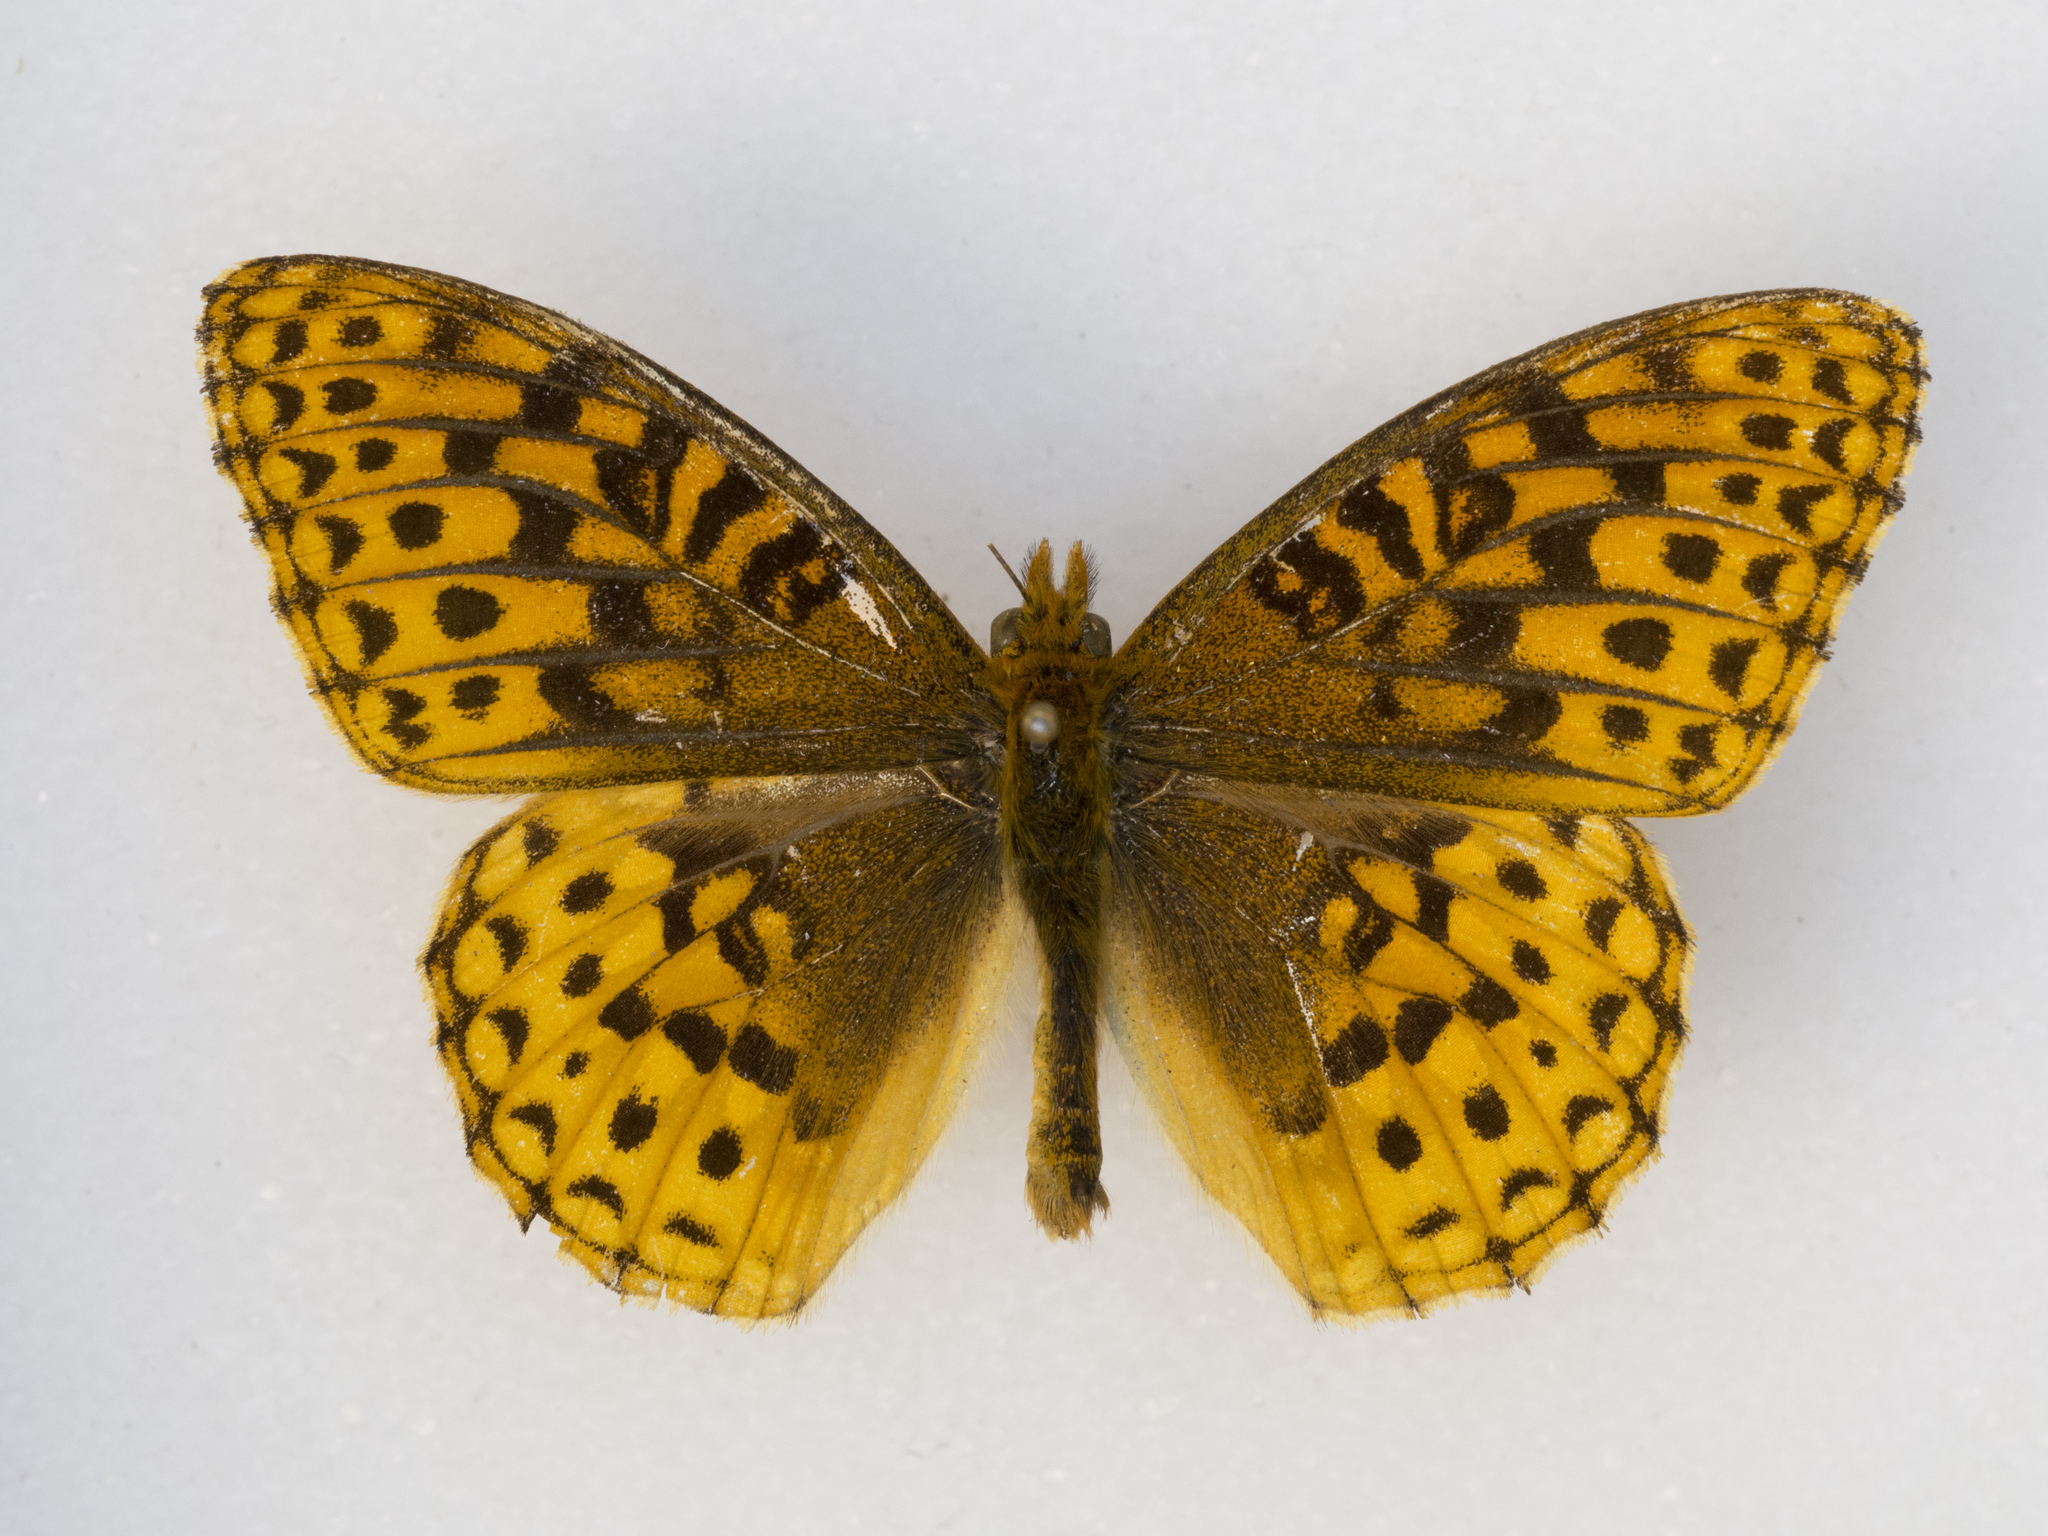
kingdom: Animalia
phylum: Arthropoda
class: Insecta
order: Lepidoptera
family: Nymphalidae
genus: Speyeria
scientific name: Speyeria atlantis
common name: Atlantis fritillary
